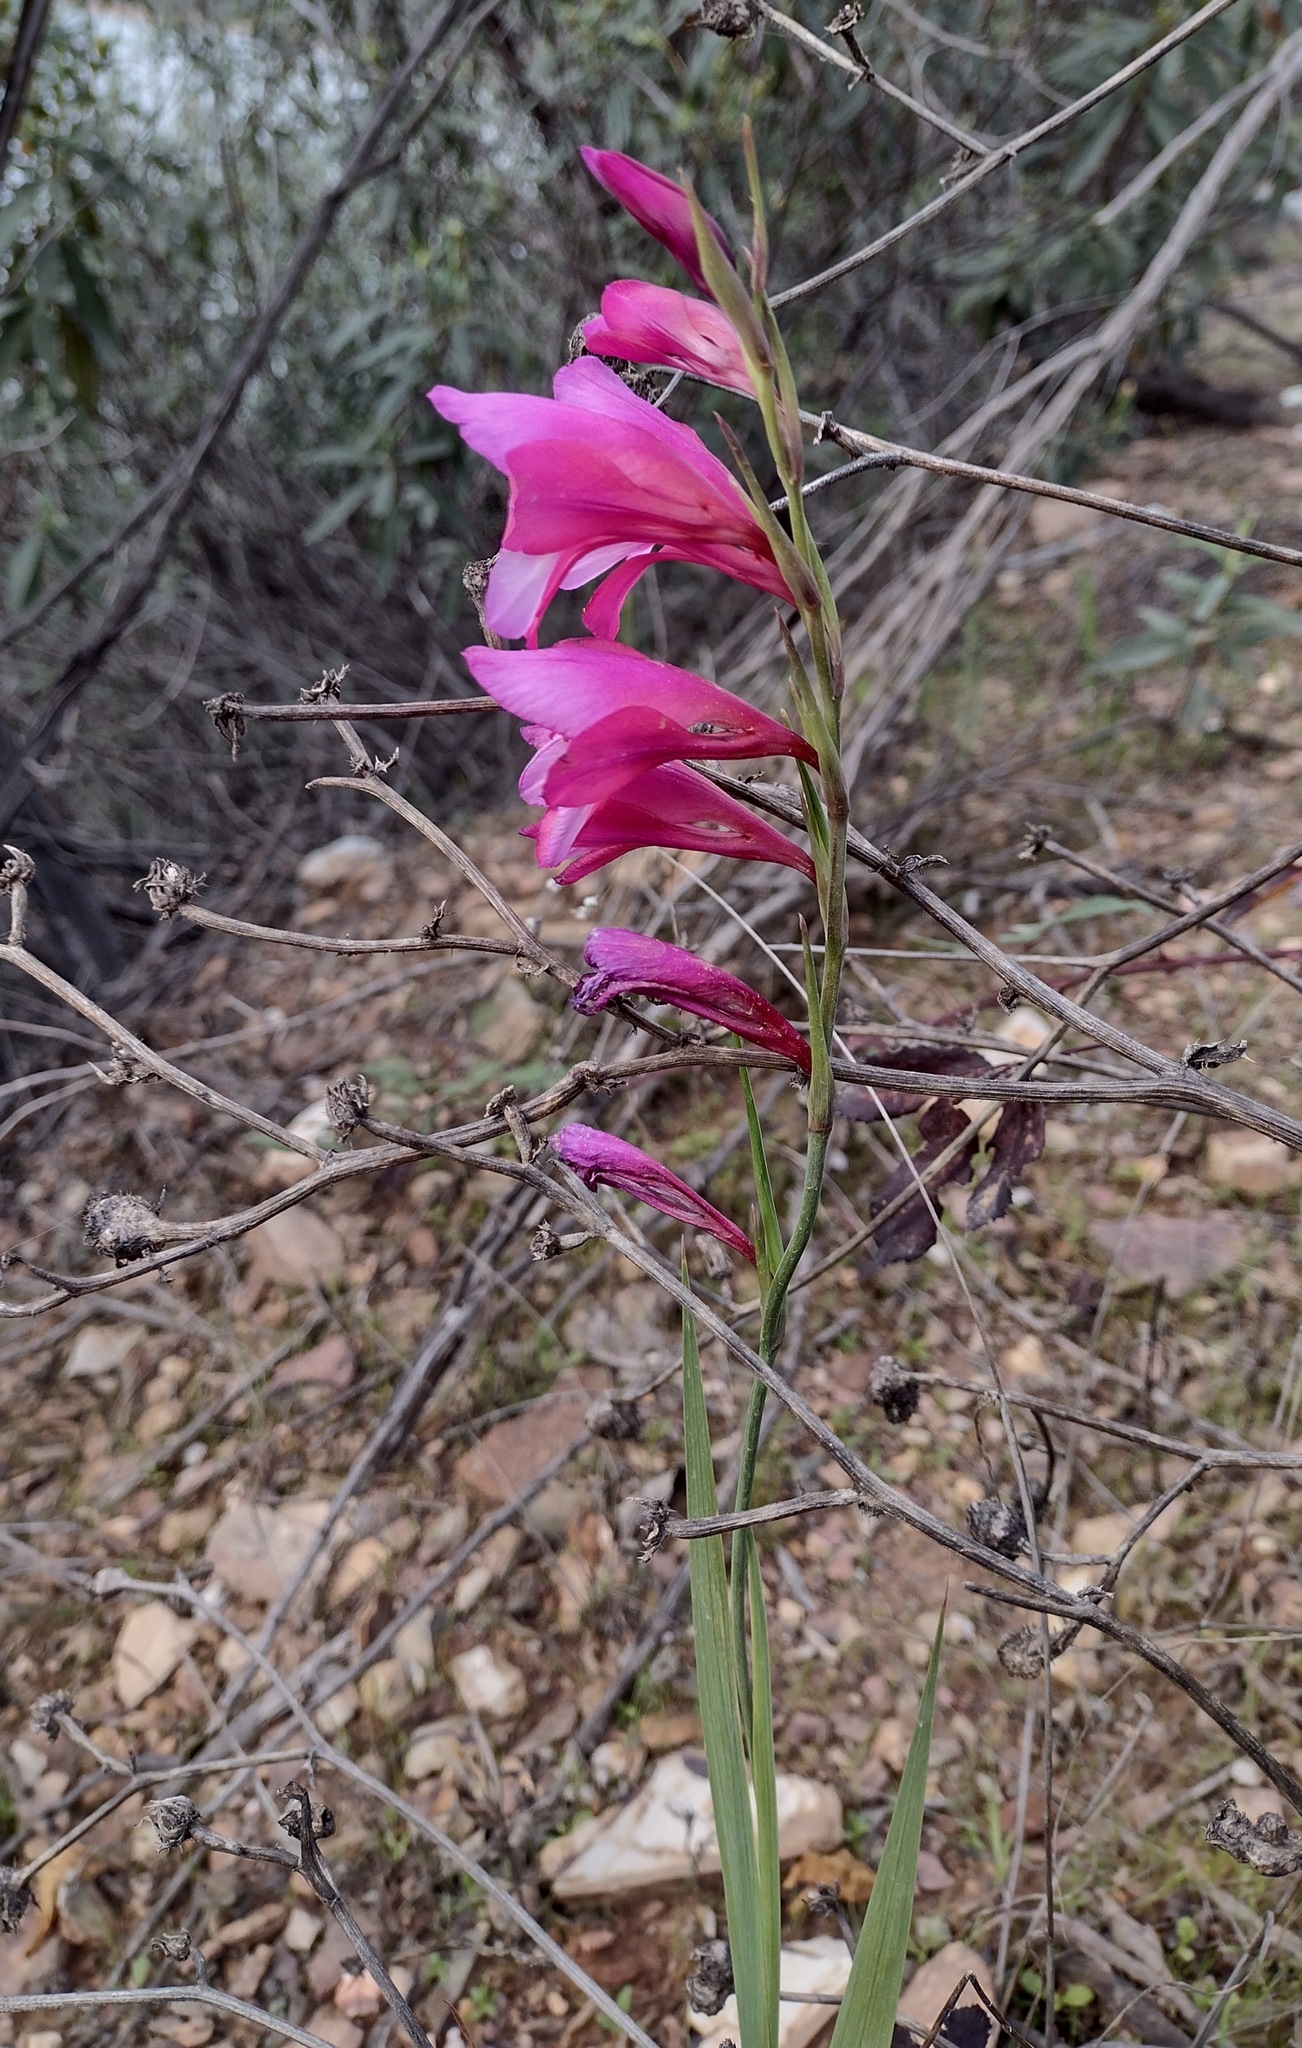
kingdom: Plantae
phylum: Tracheophyta
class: Liliopsida
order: Asparagales
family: Iridaceae
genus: Gladiolus
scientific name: Gladiolus italicus
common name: Field gladiolus
